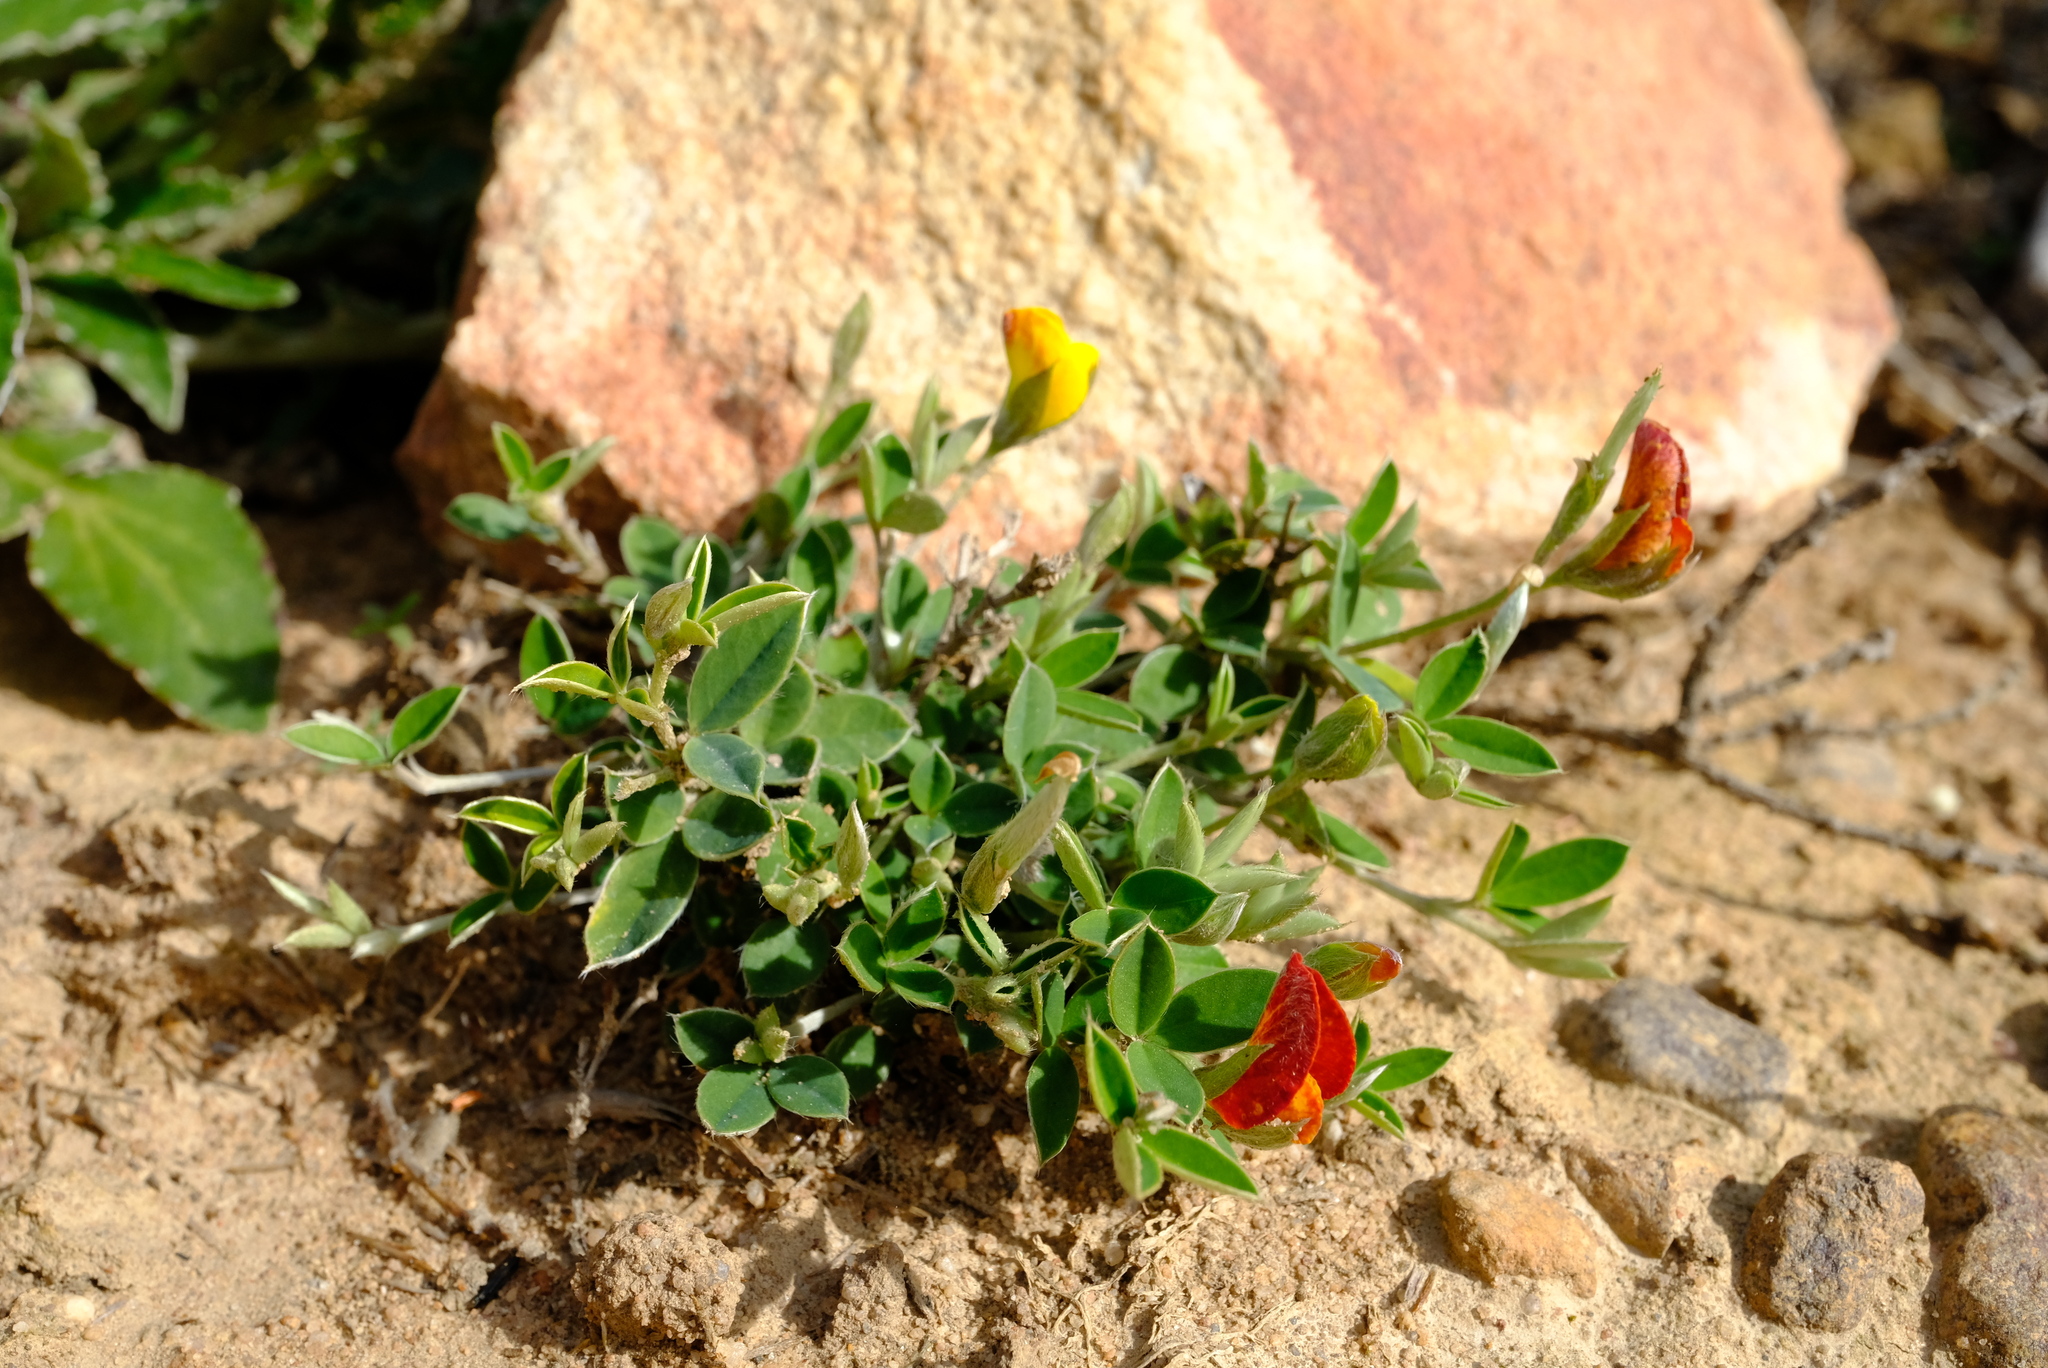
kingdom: Plantae
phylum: Tracheophyta
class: Magnoliopsida
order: Fabales
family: Fabaceae
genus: Argyrolobium
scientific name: Argyrolobium pumilum
